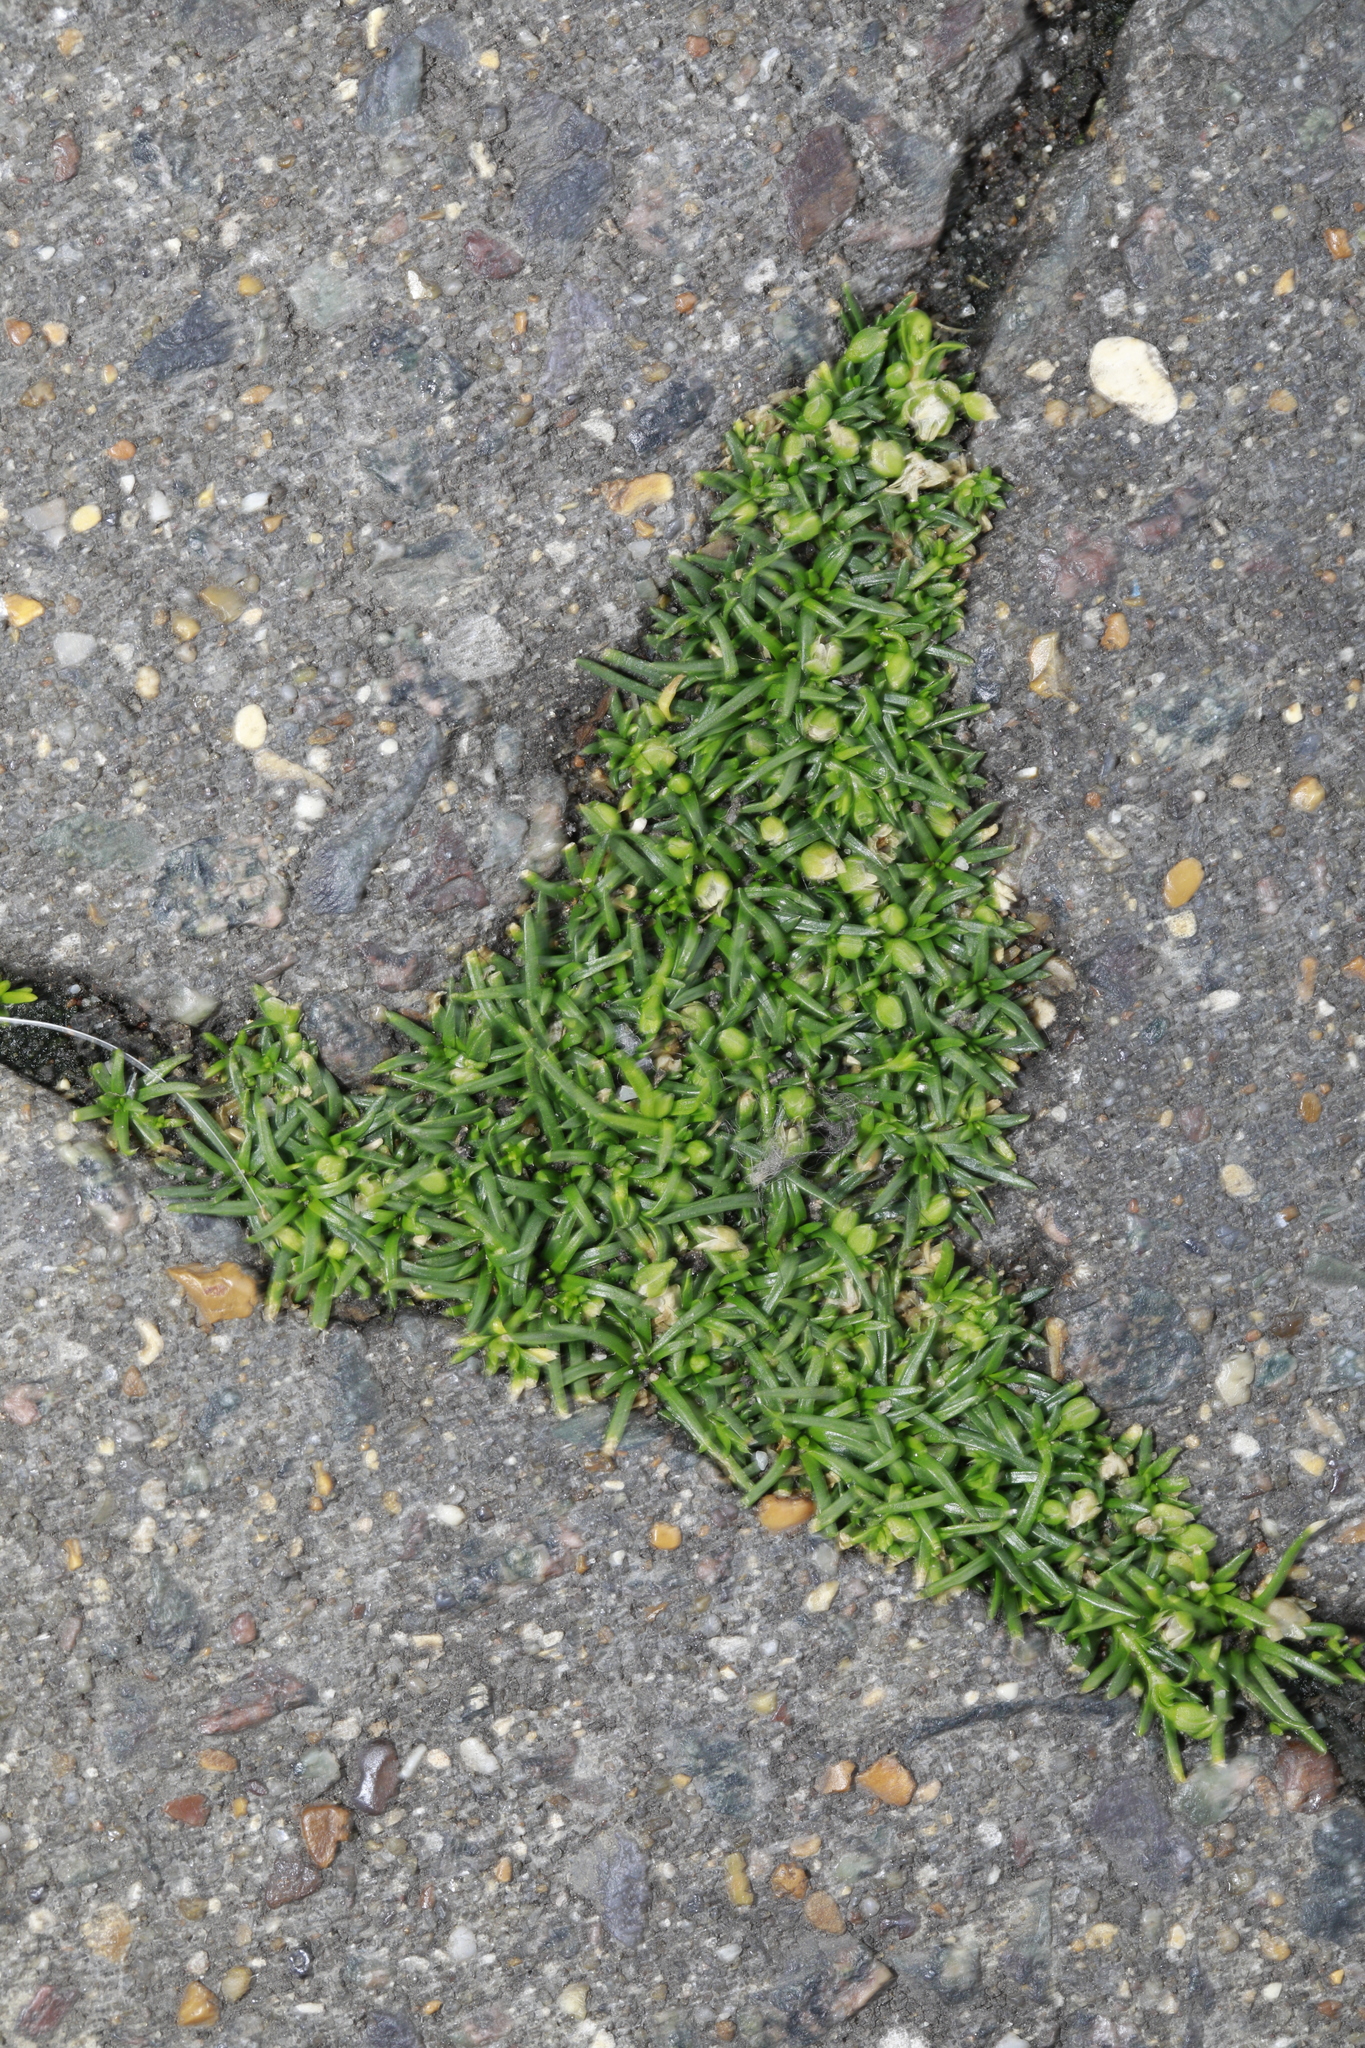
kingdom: Plantae
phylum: Tracheophyta
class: Magnoliopsida
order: Caryophyllales
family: Caryophyllaceae
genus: Sagina
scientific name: Sagina procumbens
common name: Procumbent pearlwort
